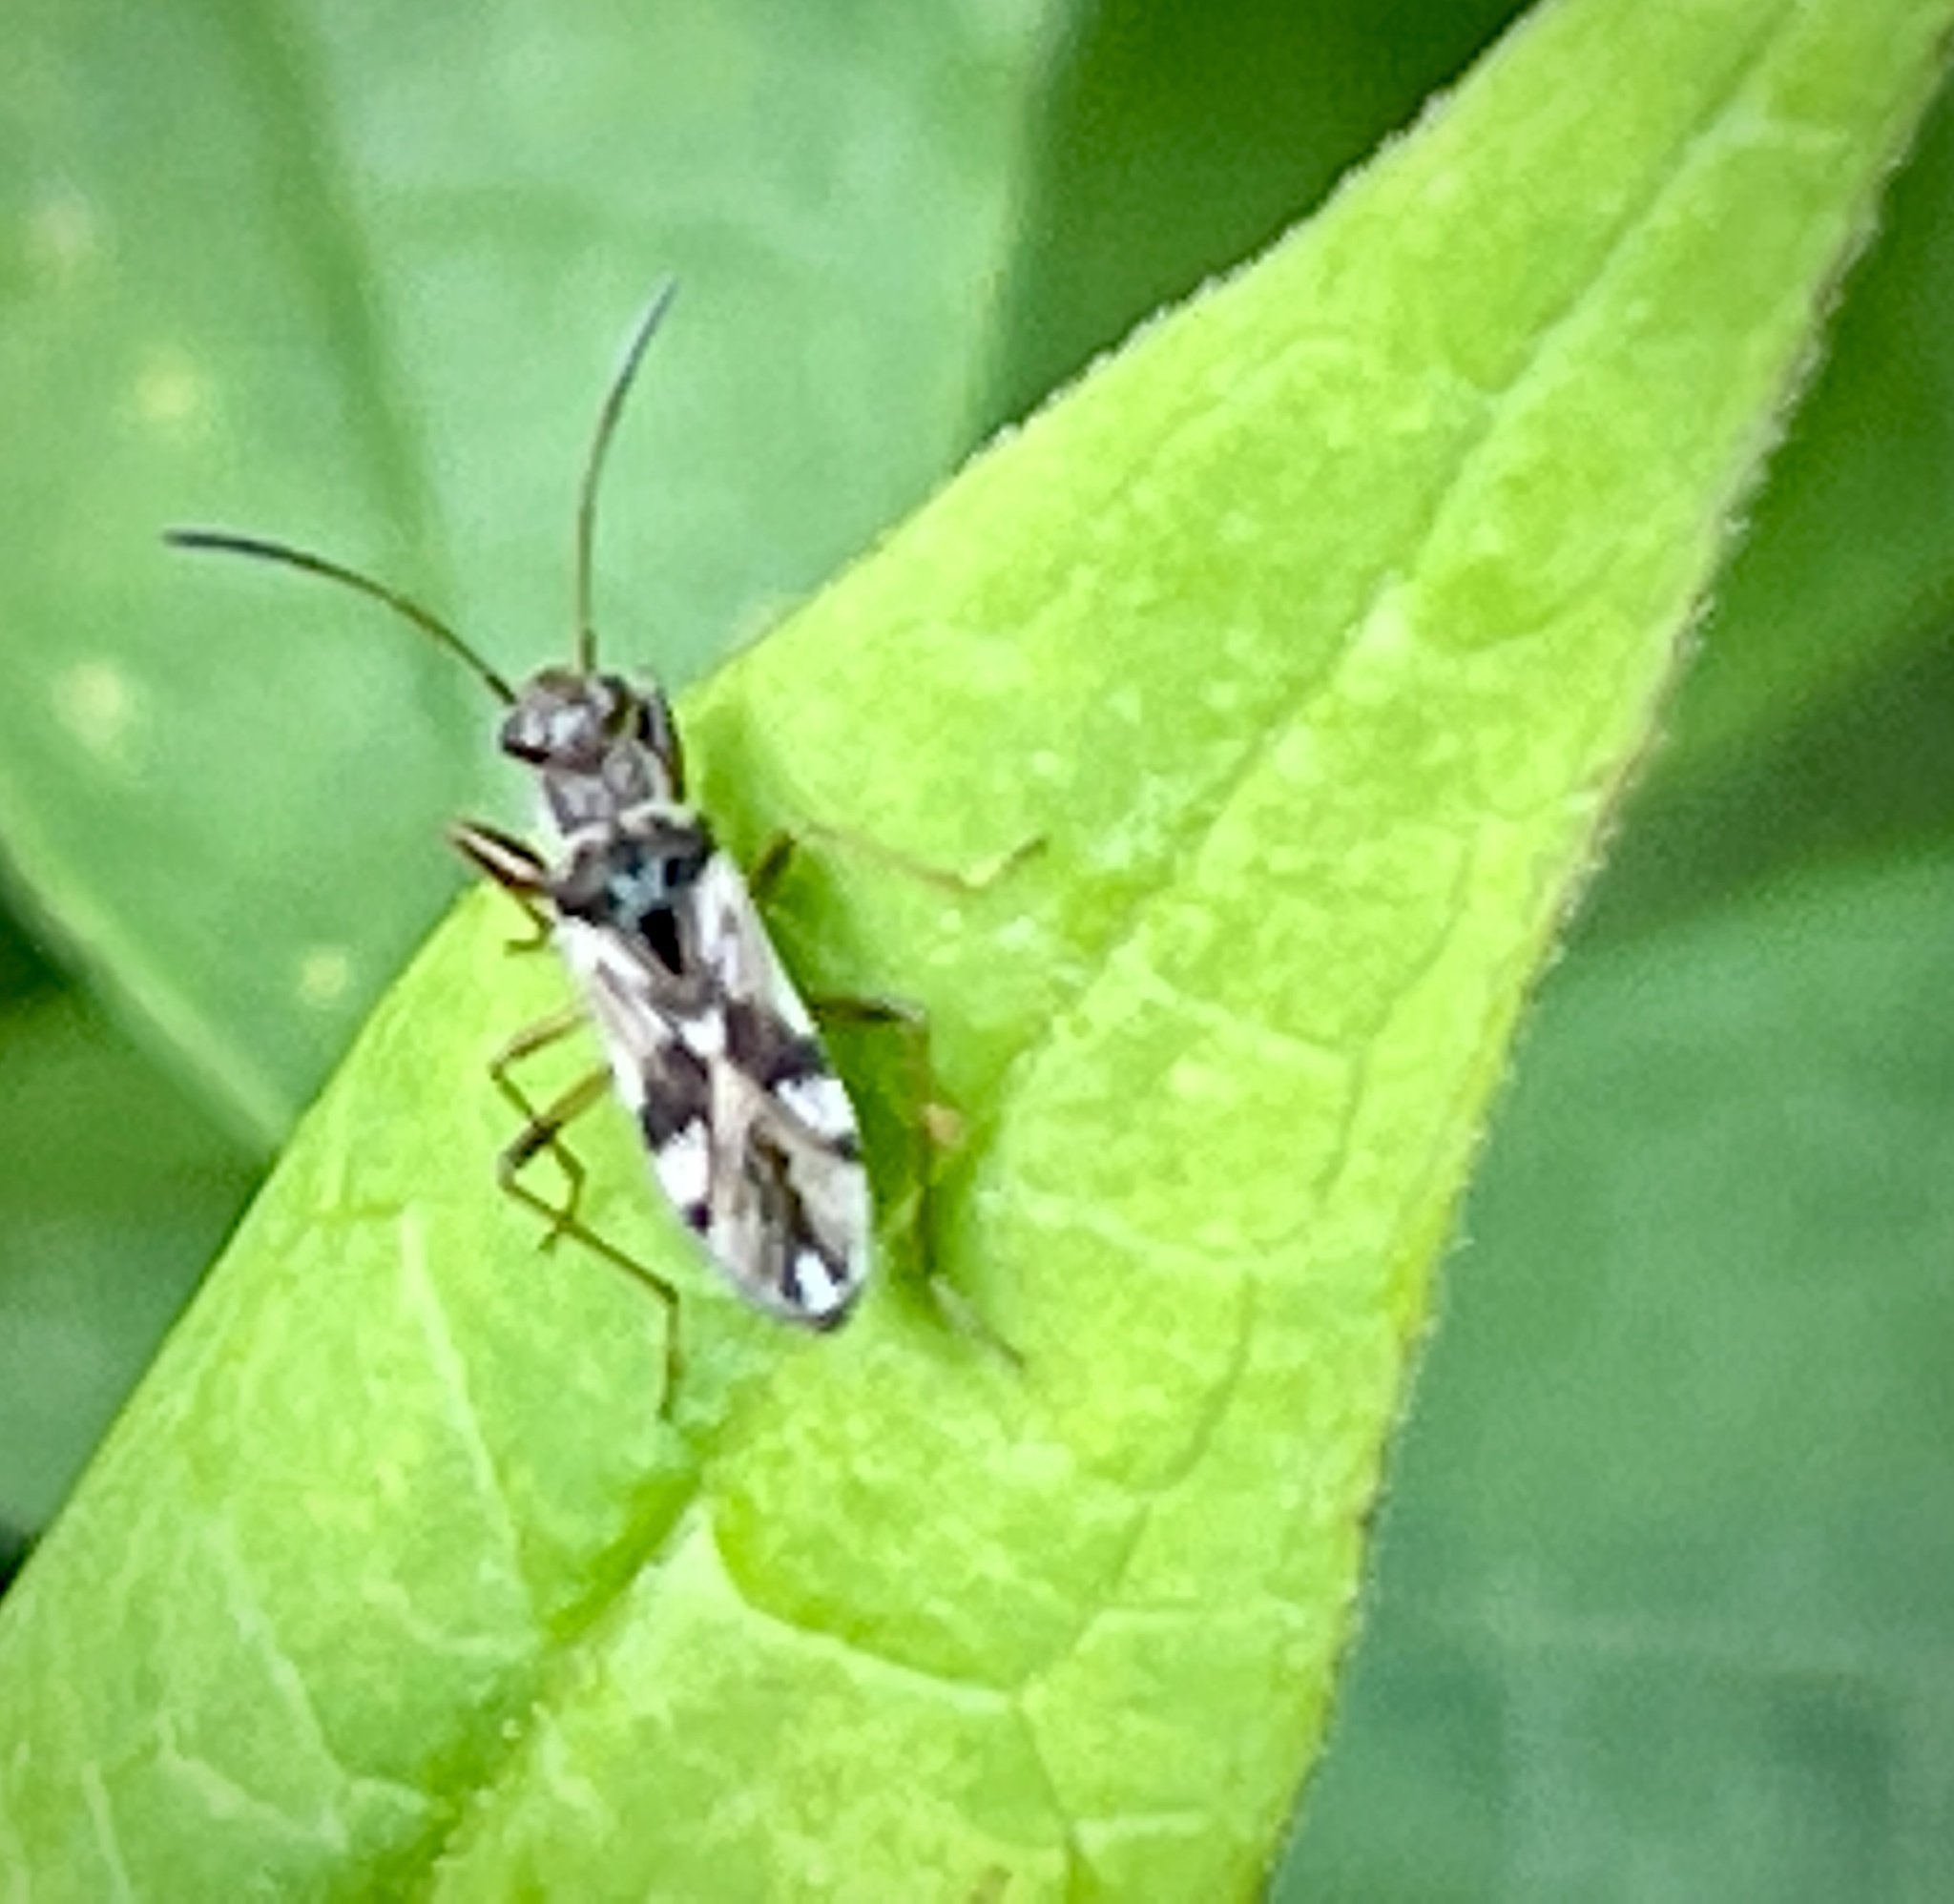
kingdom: Animalia
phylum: Arthropoda
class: Insecta
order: Hemiptera
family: Rhyparochromidae
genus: Neopamera
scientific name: Neopamera bilobata
